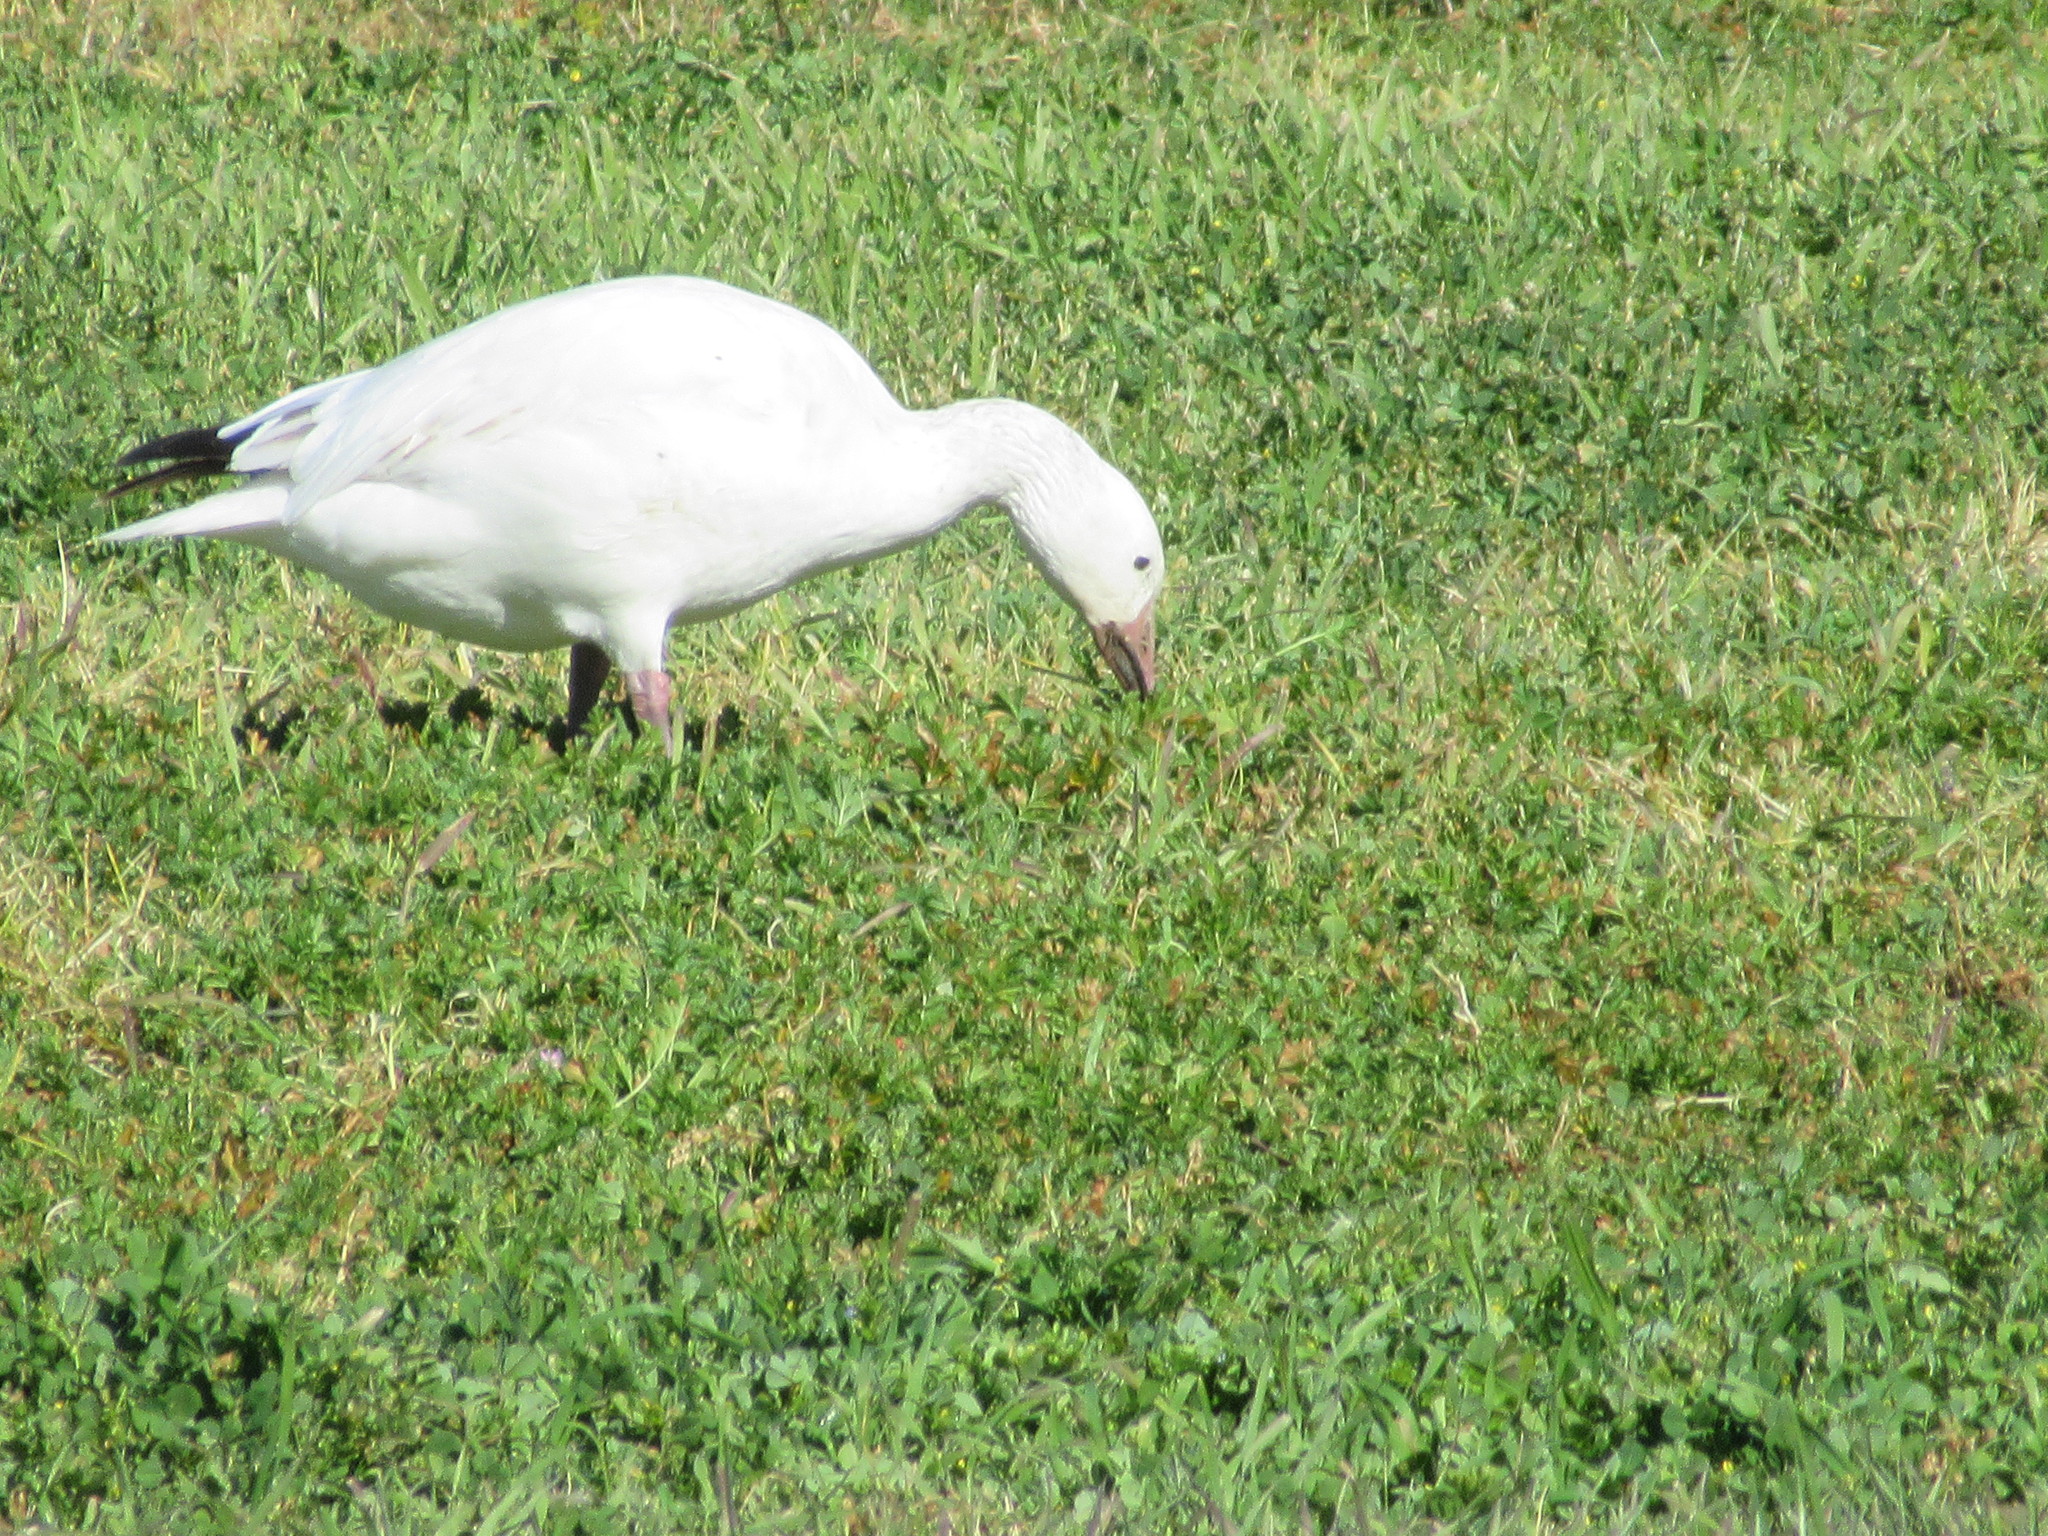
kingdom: Animalia
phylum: Chordata
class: Aves
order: Anseriformes
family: Anatidae
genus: Anser
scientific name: Anser caerulescens
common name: Snow goose
